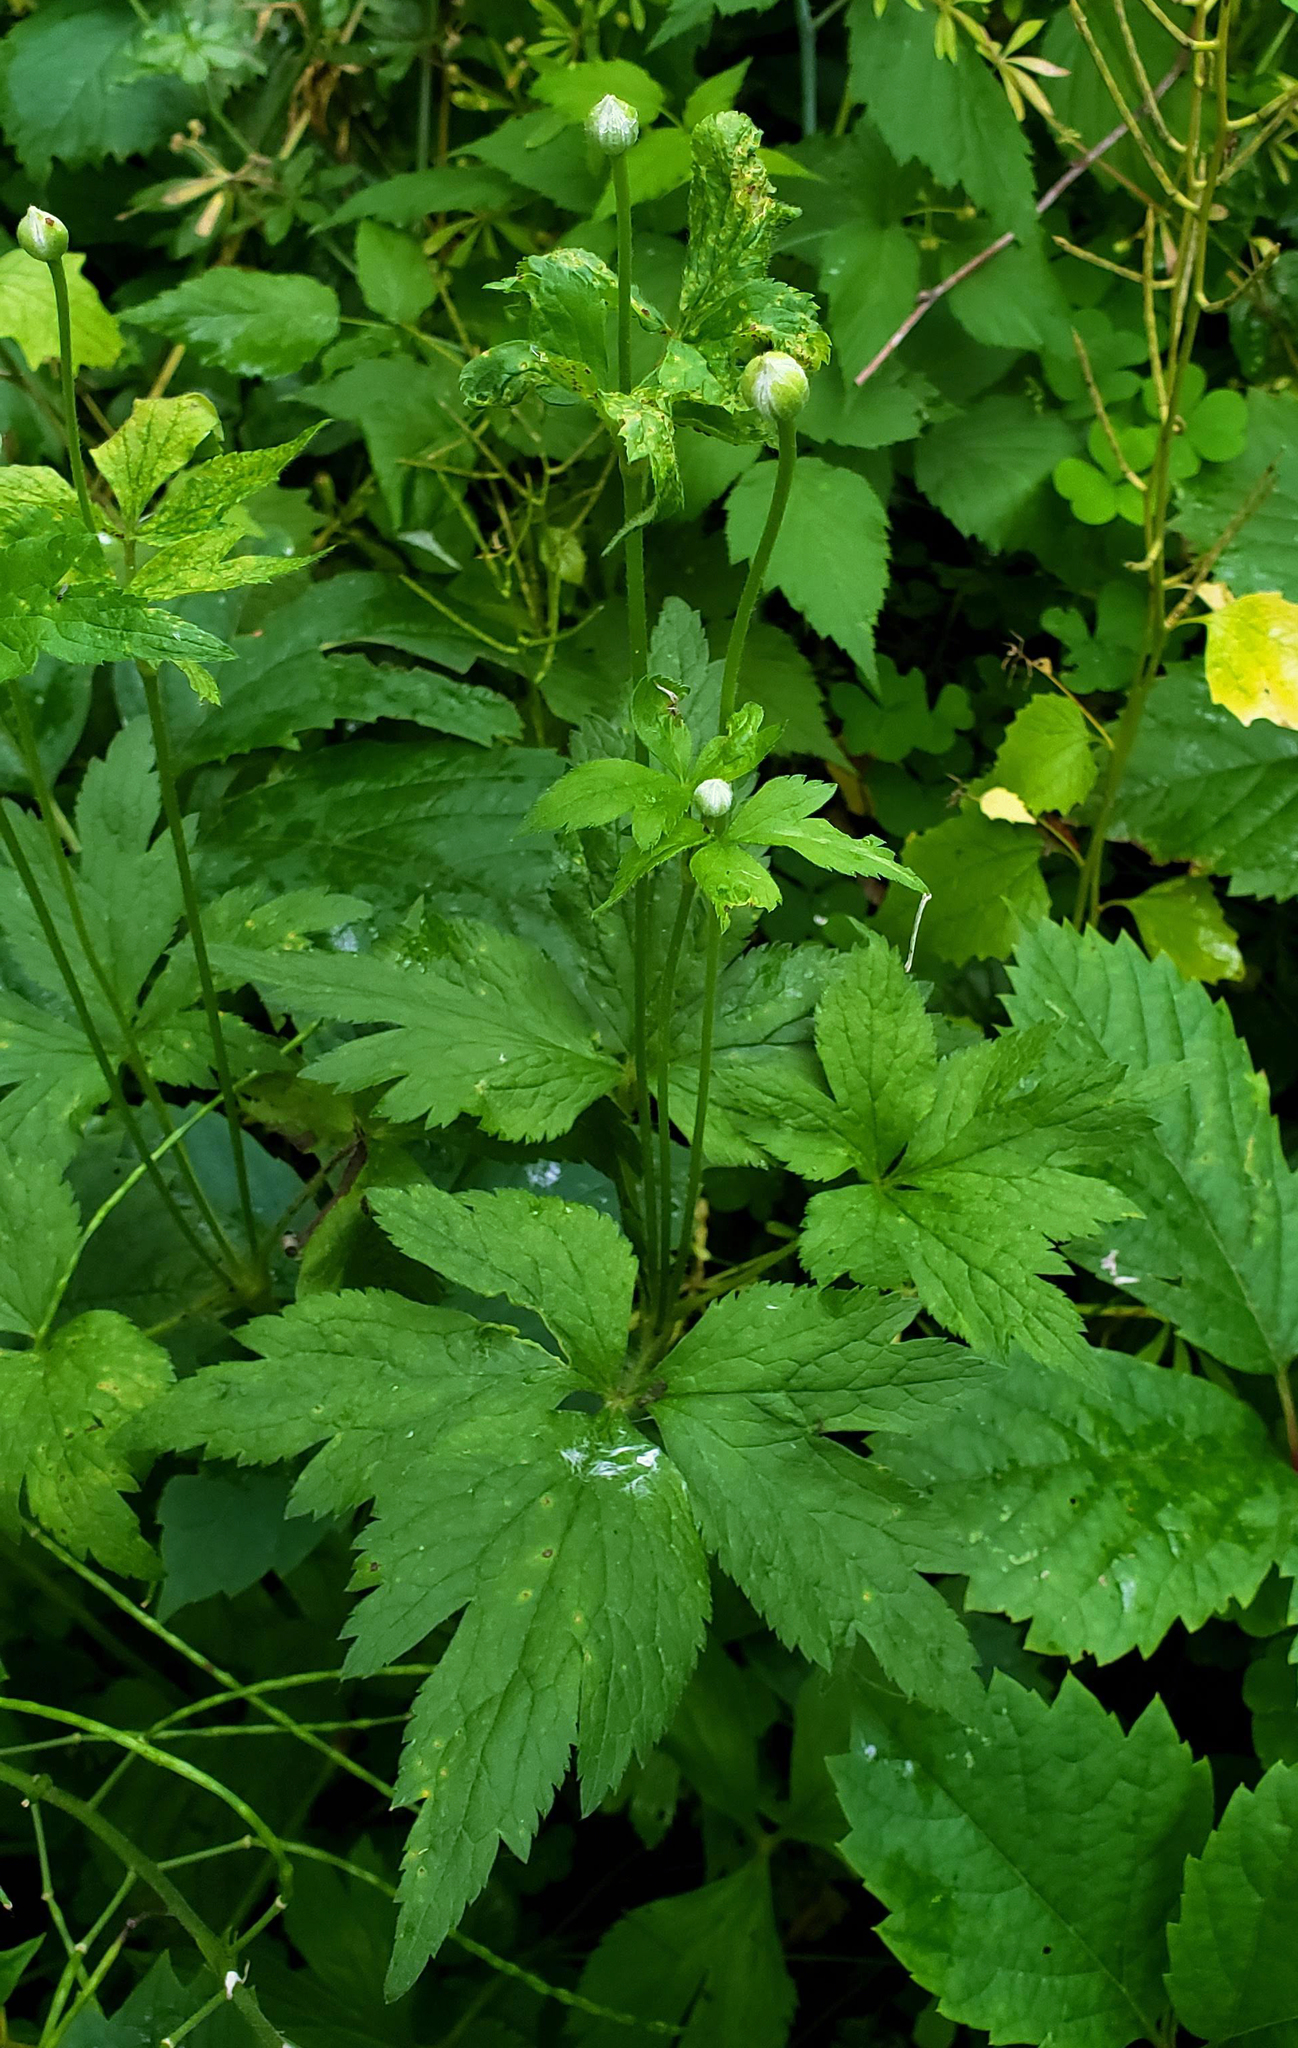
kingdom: Plantae
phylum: Tracheophyta
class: Magnoliopsida
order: Ranunculales
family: Ranunculaceae
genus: Anemone
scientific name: Anemone virginiana
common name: Tall anemone
